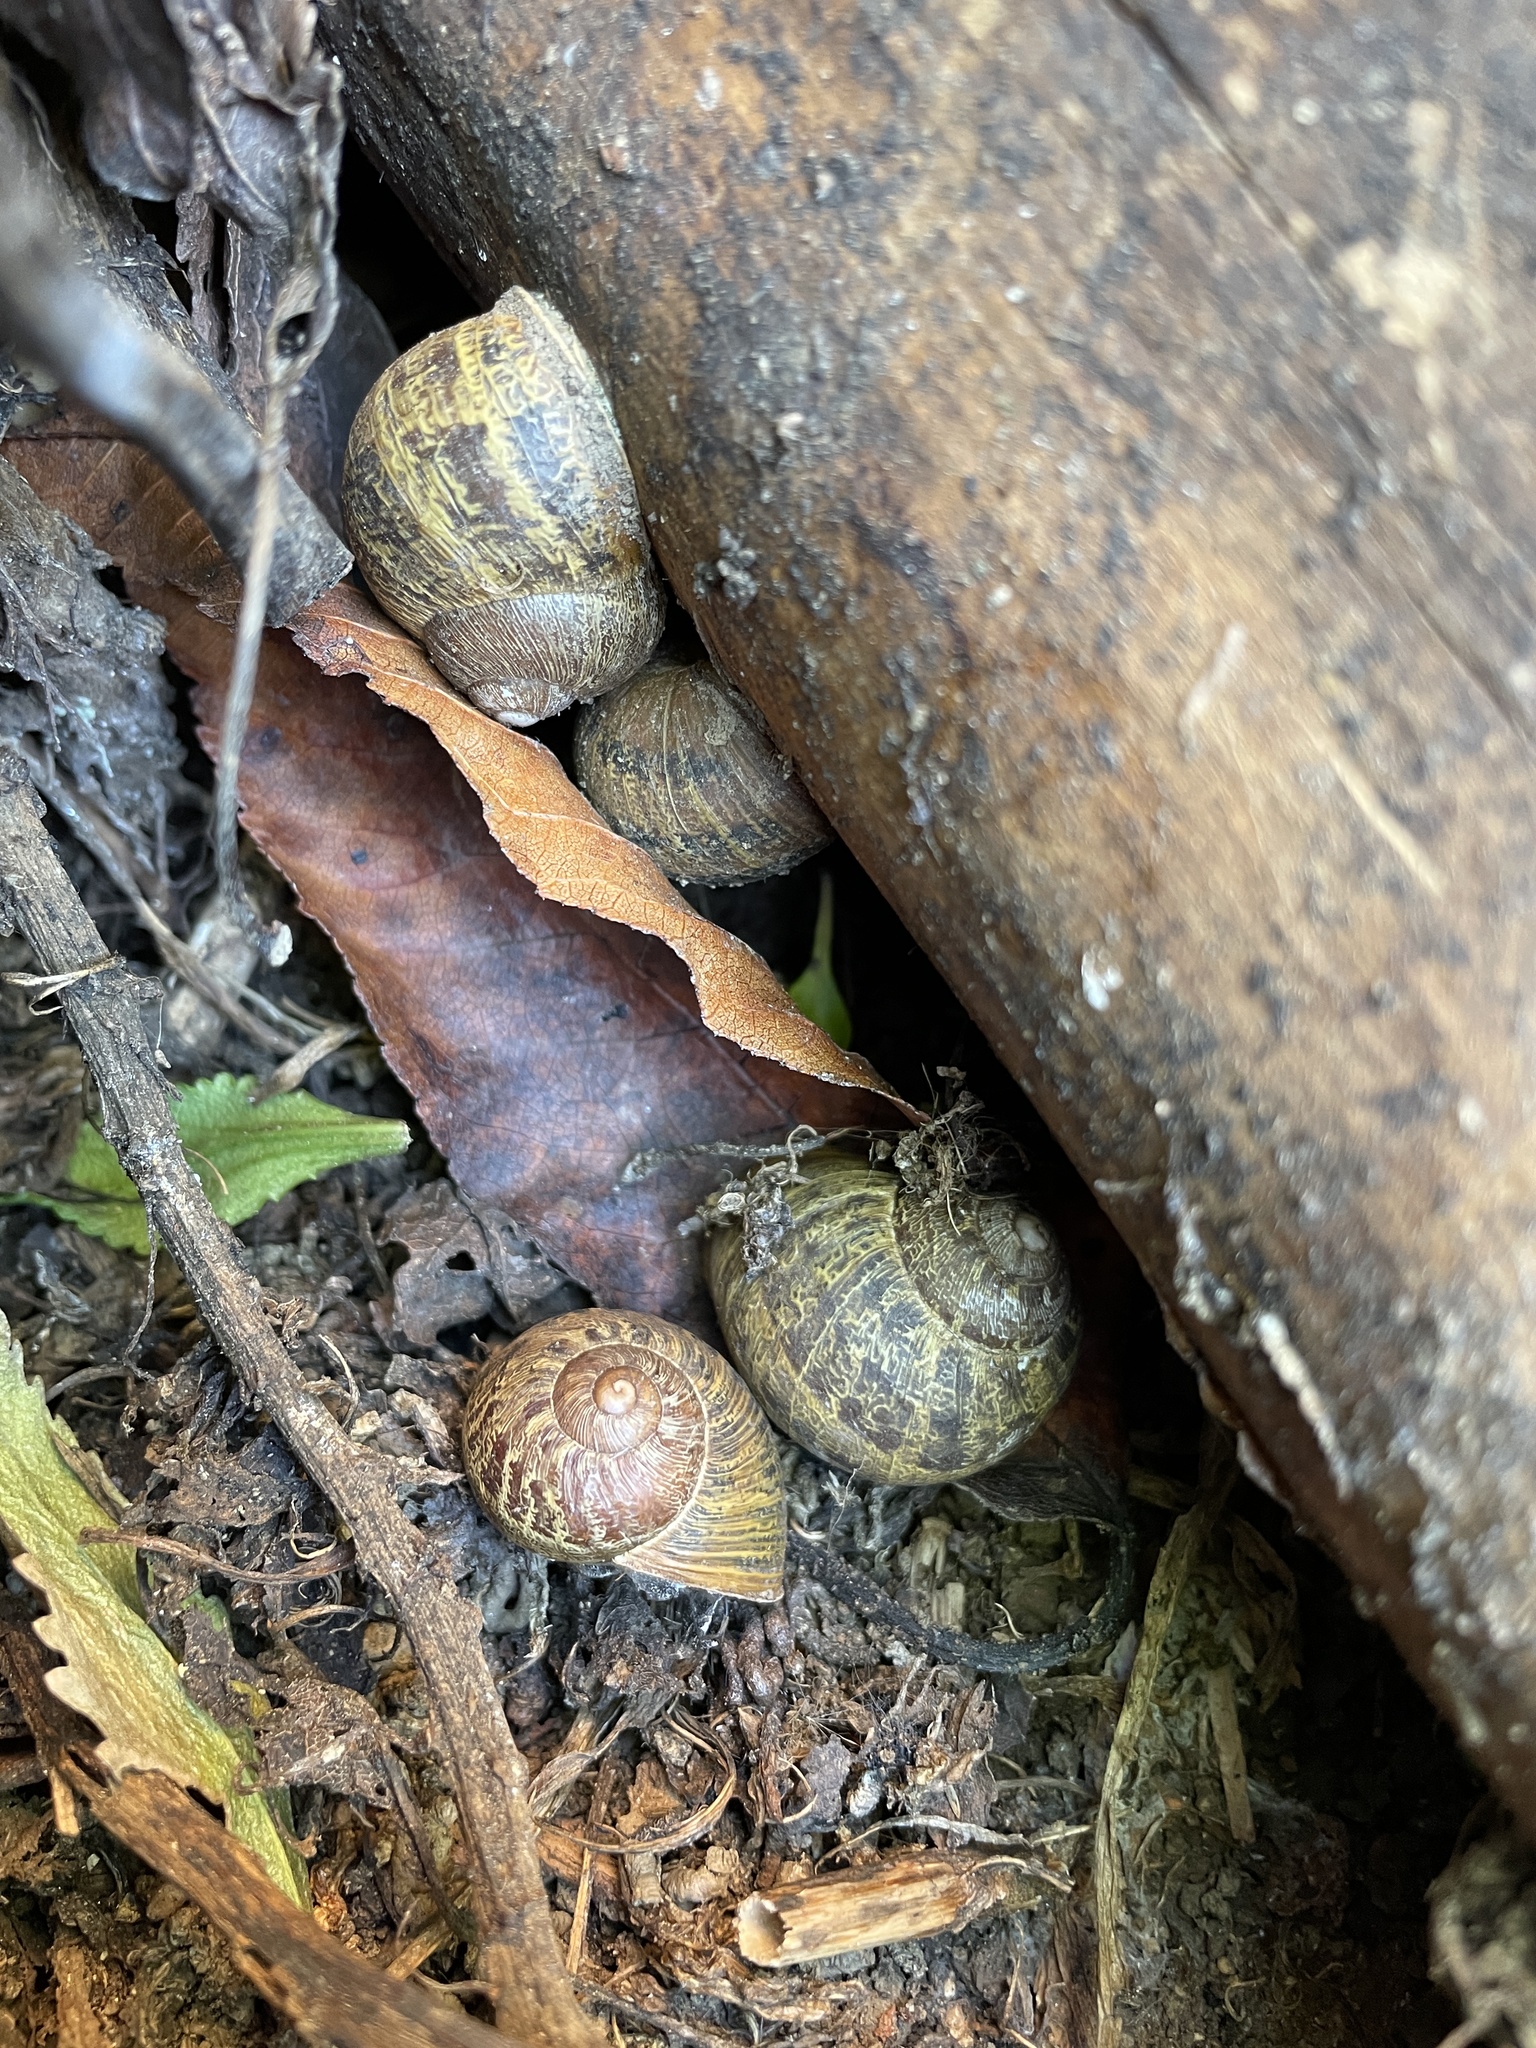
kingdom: Animalia
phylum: Mollusca
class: Gastropoda
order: Stylommatophora
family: Helicidae
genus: Cornu
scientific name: Cornu aspersum
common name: Brown garden snail
